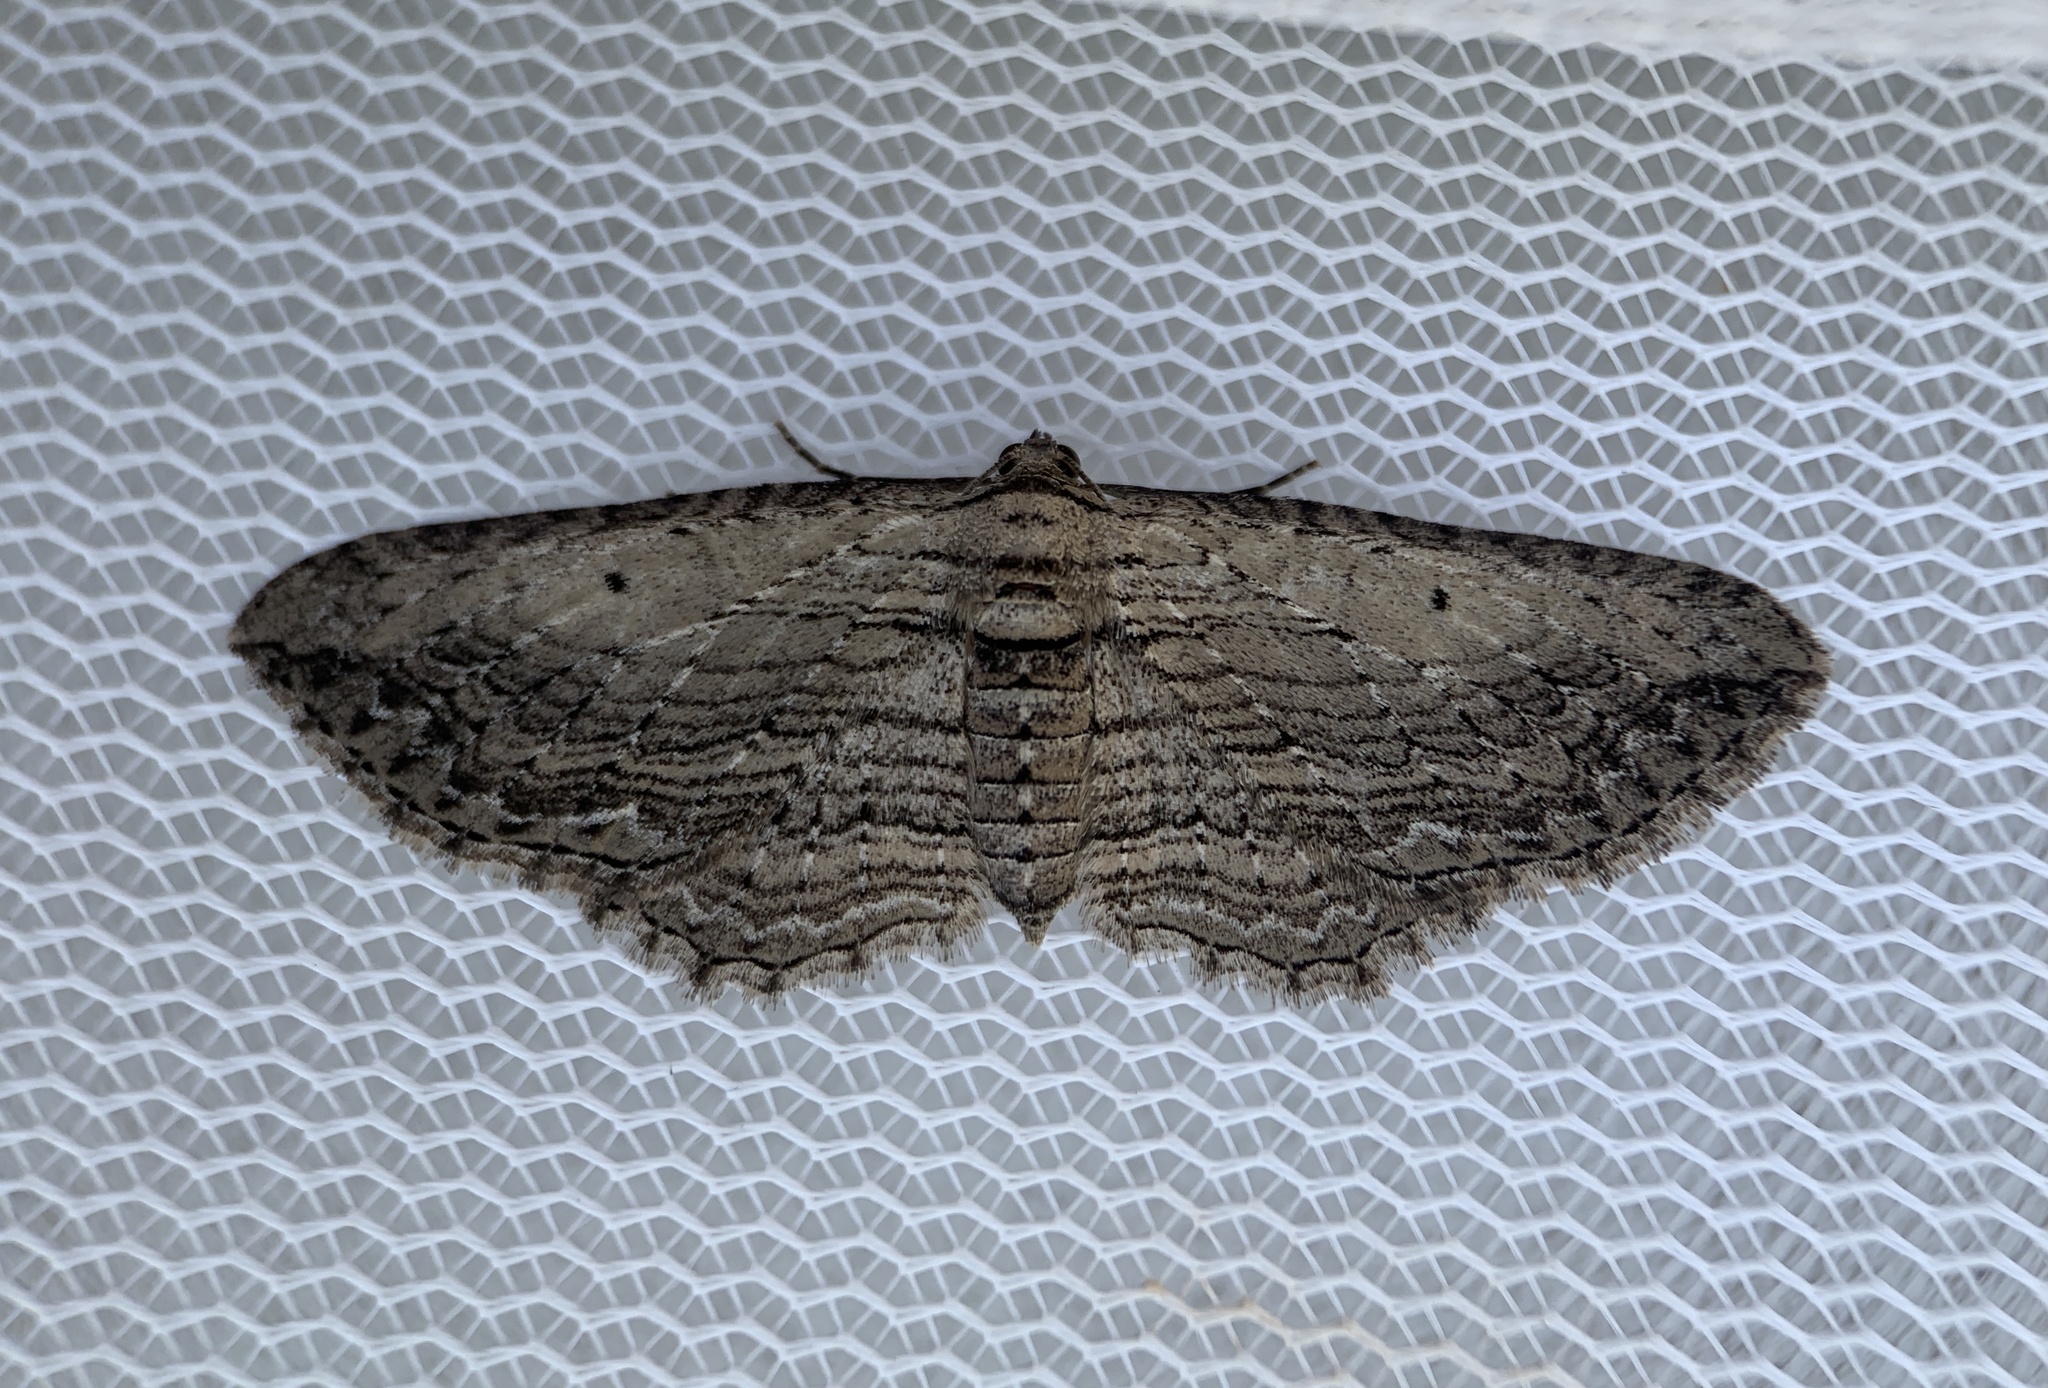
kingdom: Animalia
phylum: Arthropoda
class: Insecta
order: Lepidoptera
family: Geometridae
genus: Horisme
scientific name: Horisme intestinata
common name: Brown bark carpet
